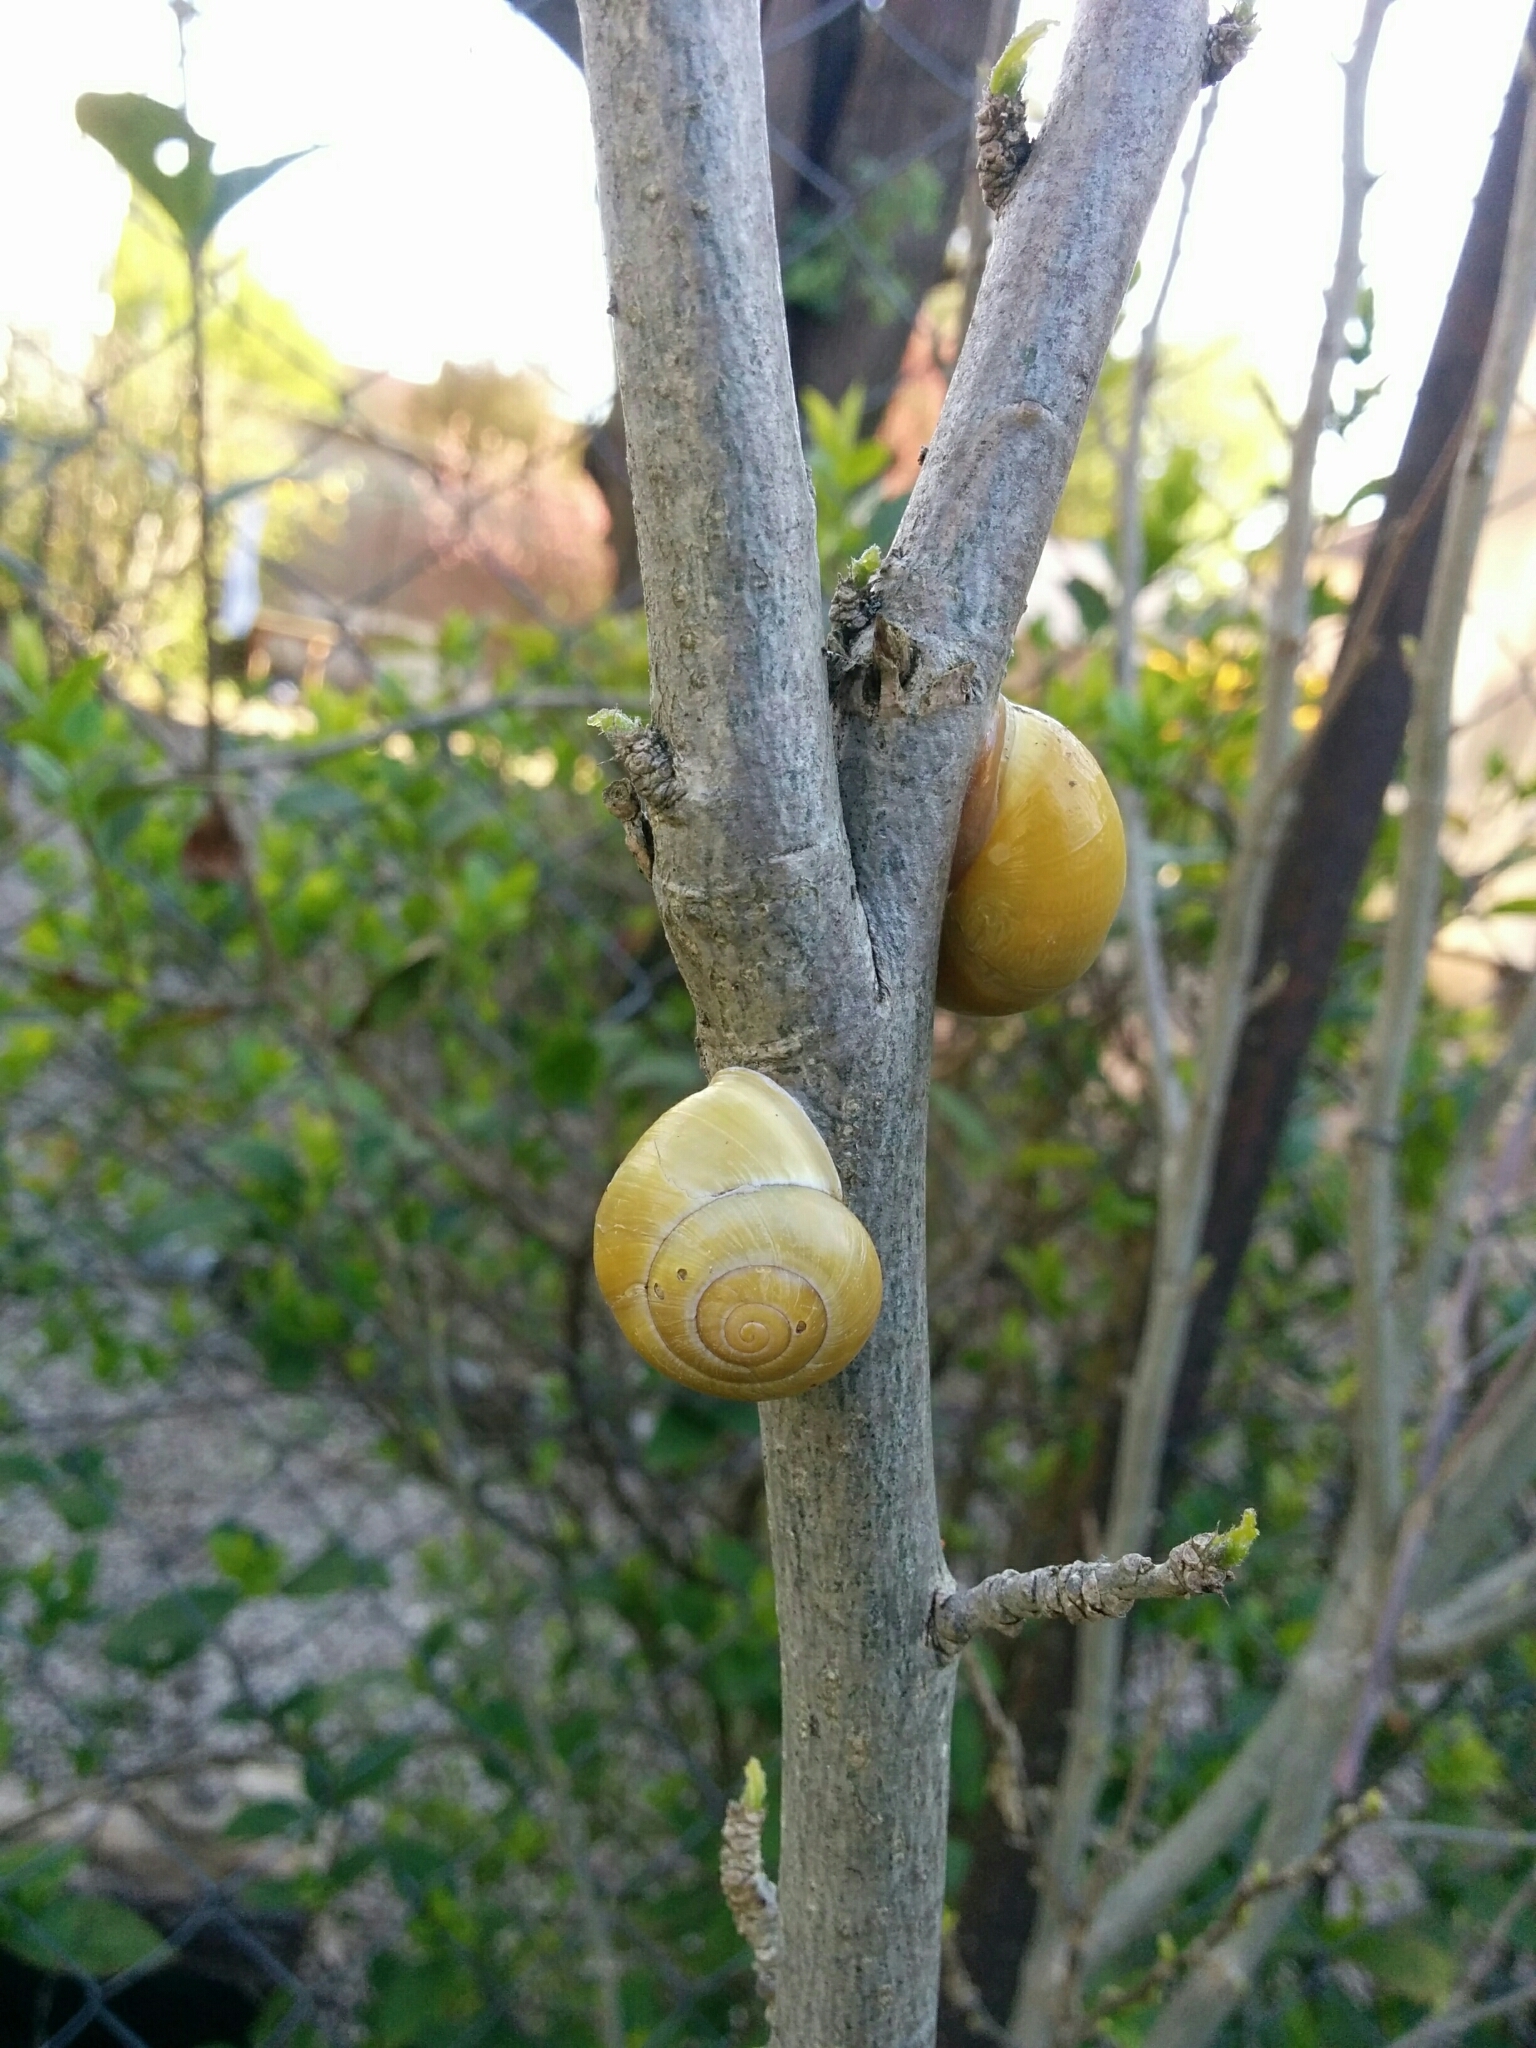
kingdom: Animalia
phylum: Mollusca
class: Gastropoda
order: Stylommatophora
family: Helicidae
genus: Cepaea
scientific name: Cepaea hortensis
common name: White-lip gardensnail
